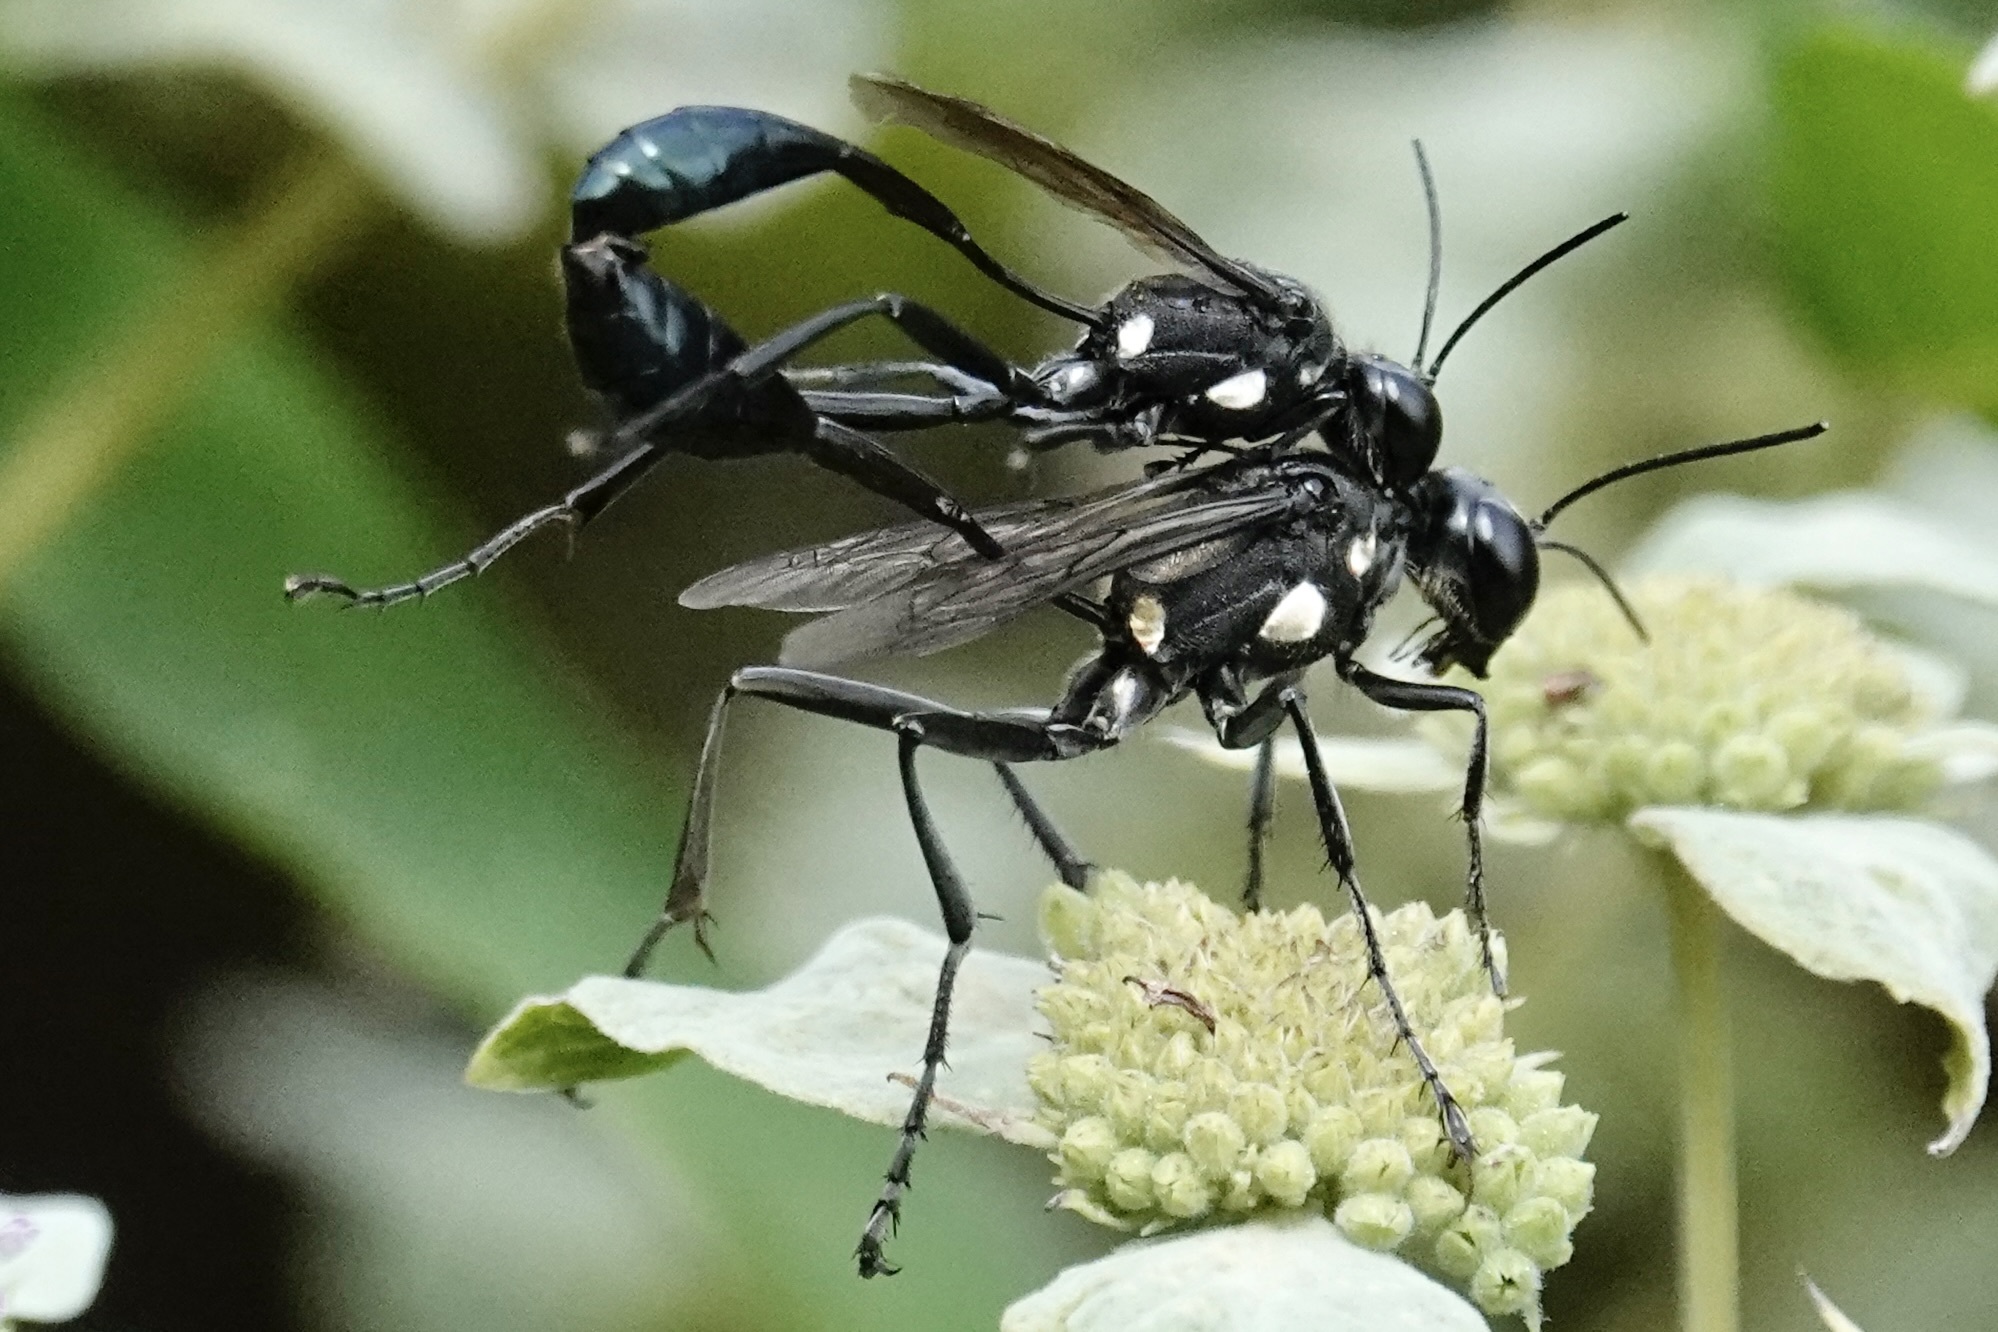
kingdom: Animalia
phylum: Arthropoda
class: Insecta
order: Hymenoptera
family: Sphecidae
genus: Eremnophila
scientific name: Eremnophila aureonotata
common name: Gold-marked thread-waisted wasp
